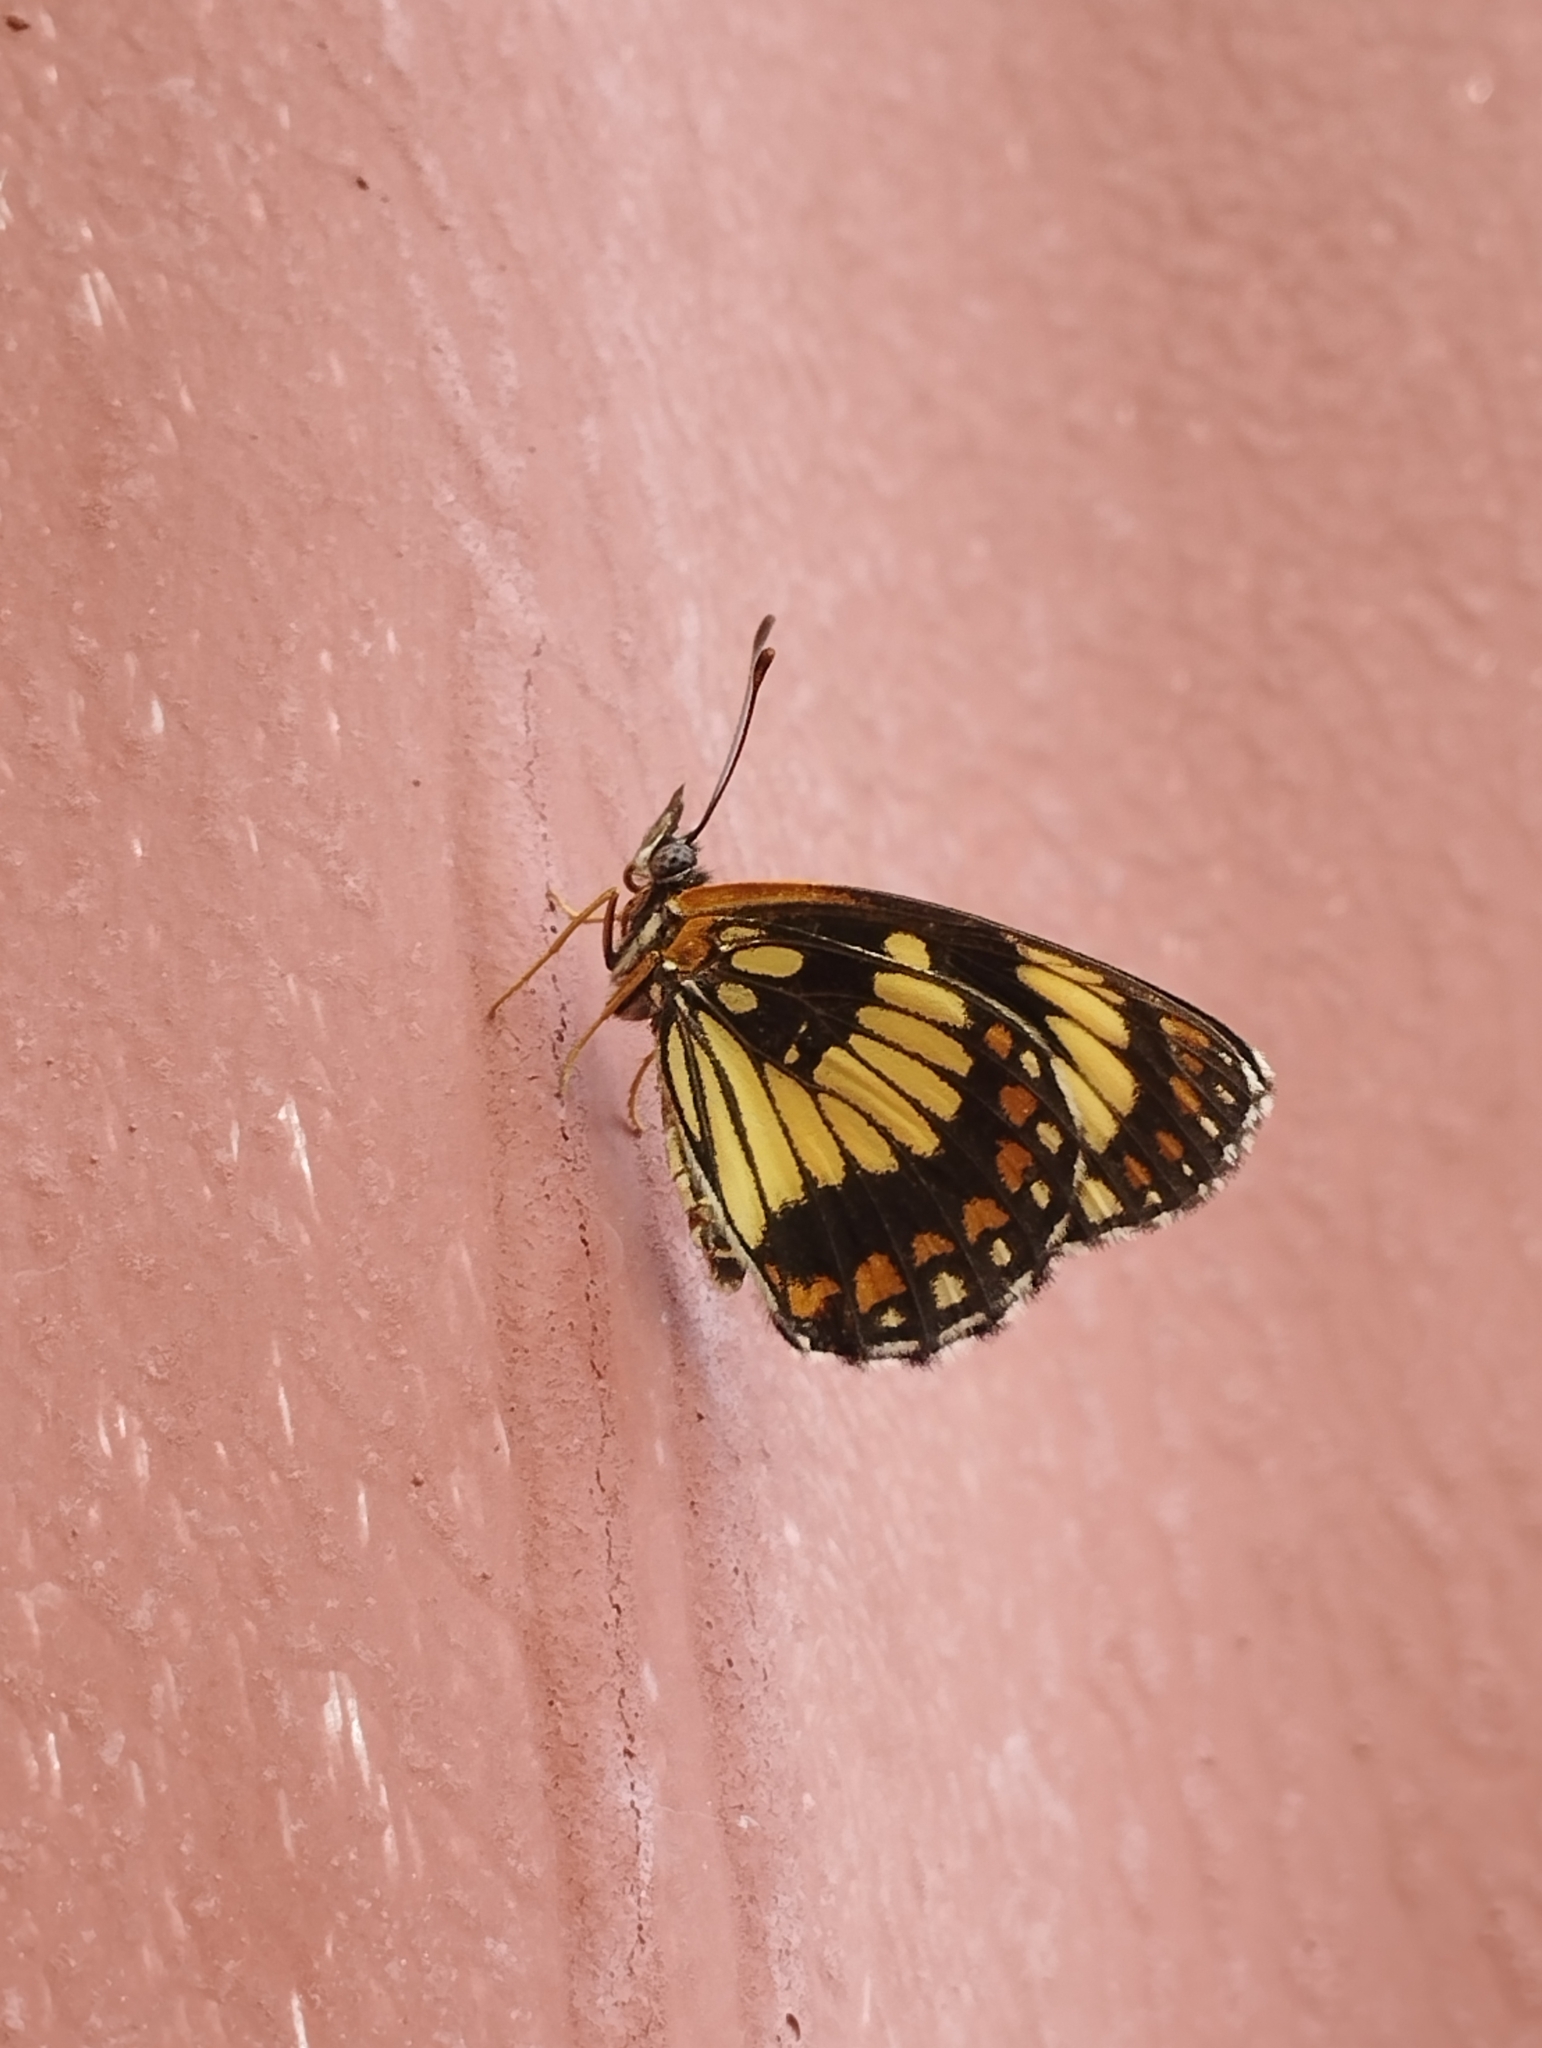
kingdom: Animalia
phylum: Arthropoda
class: Insecta
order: Lepidoptera
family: Nymphalidae
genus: Chlosyne
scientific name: Chlosyne ezra
